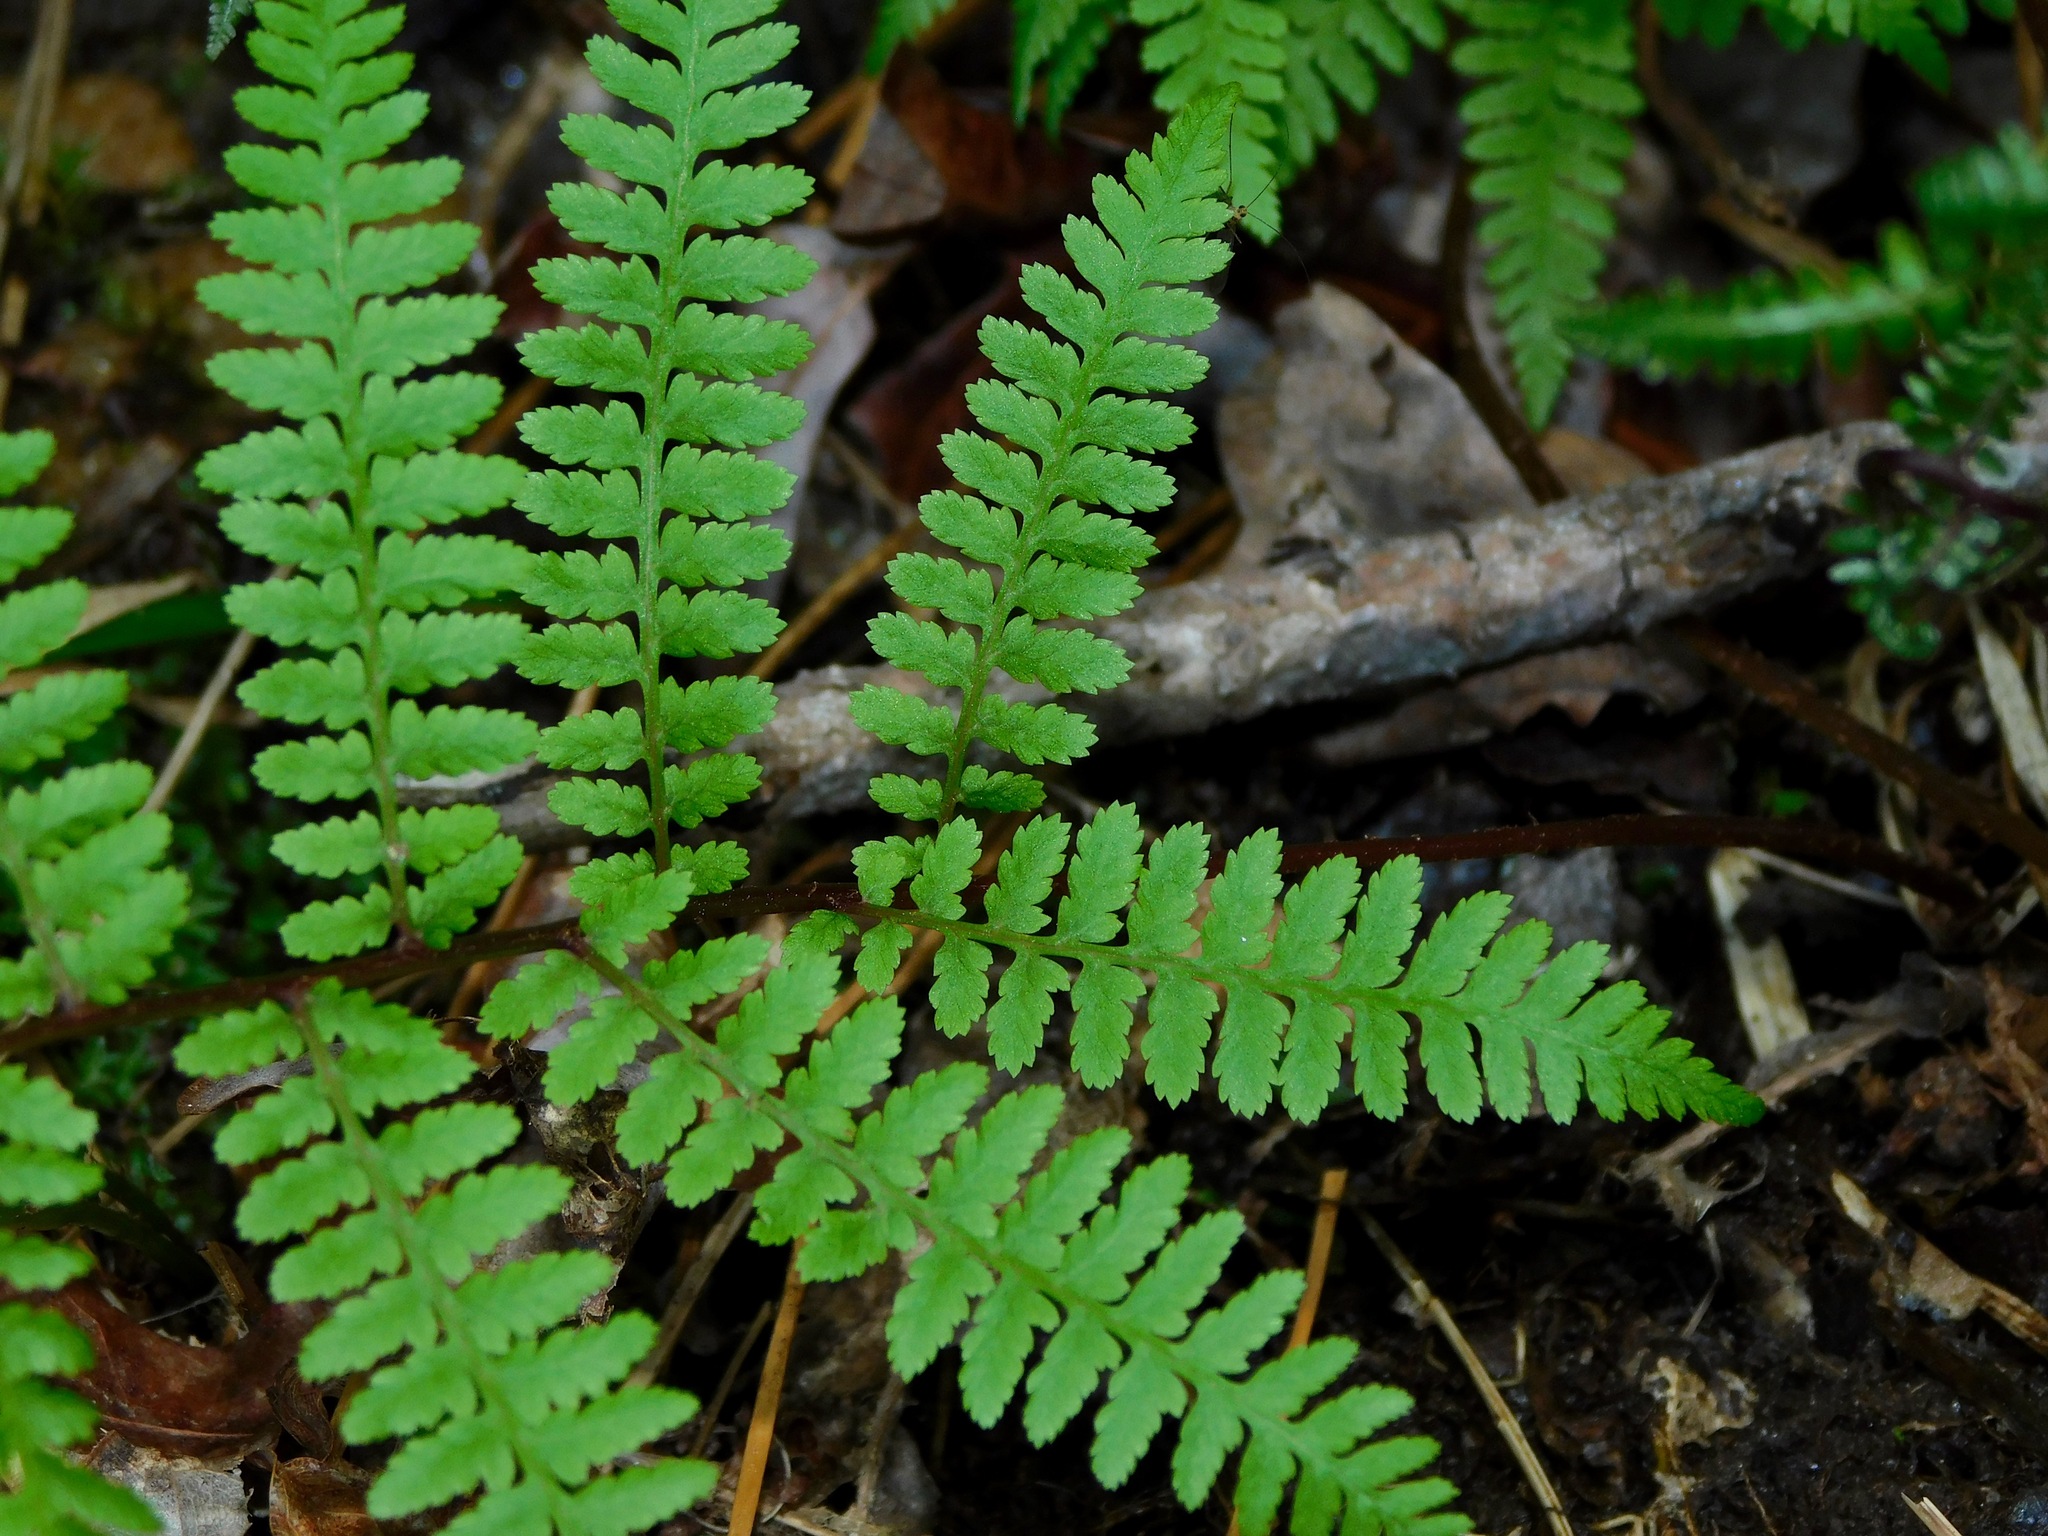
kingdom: Plantae
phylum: Tracheophyta
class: Polypodiopsida
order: Polypodiales
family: Athyriaceae
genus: Athyrium
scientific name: Athyrium asplenioides
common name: Southern lady fern
